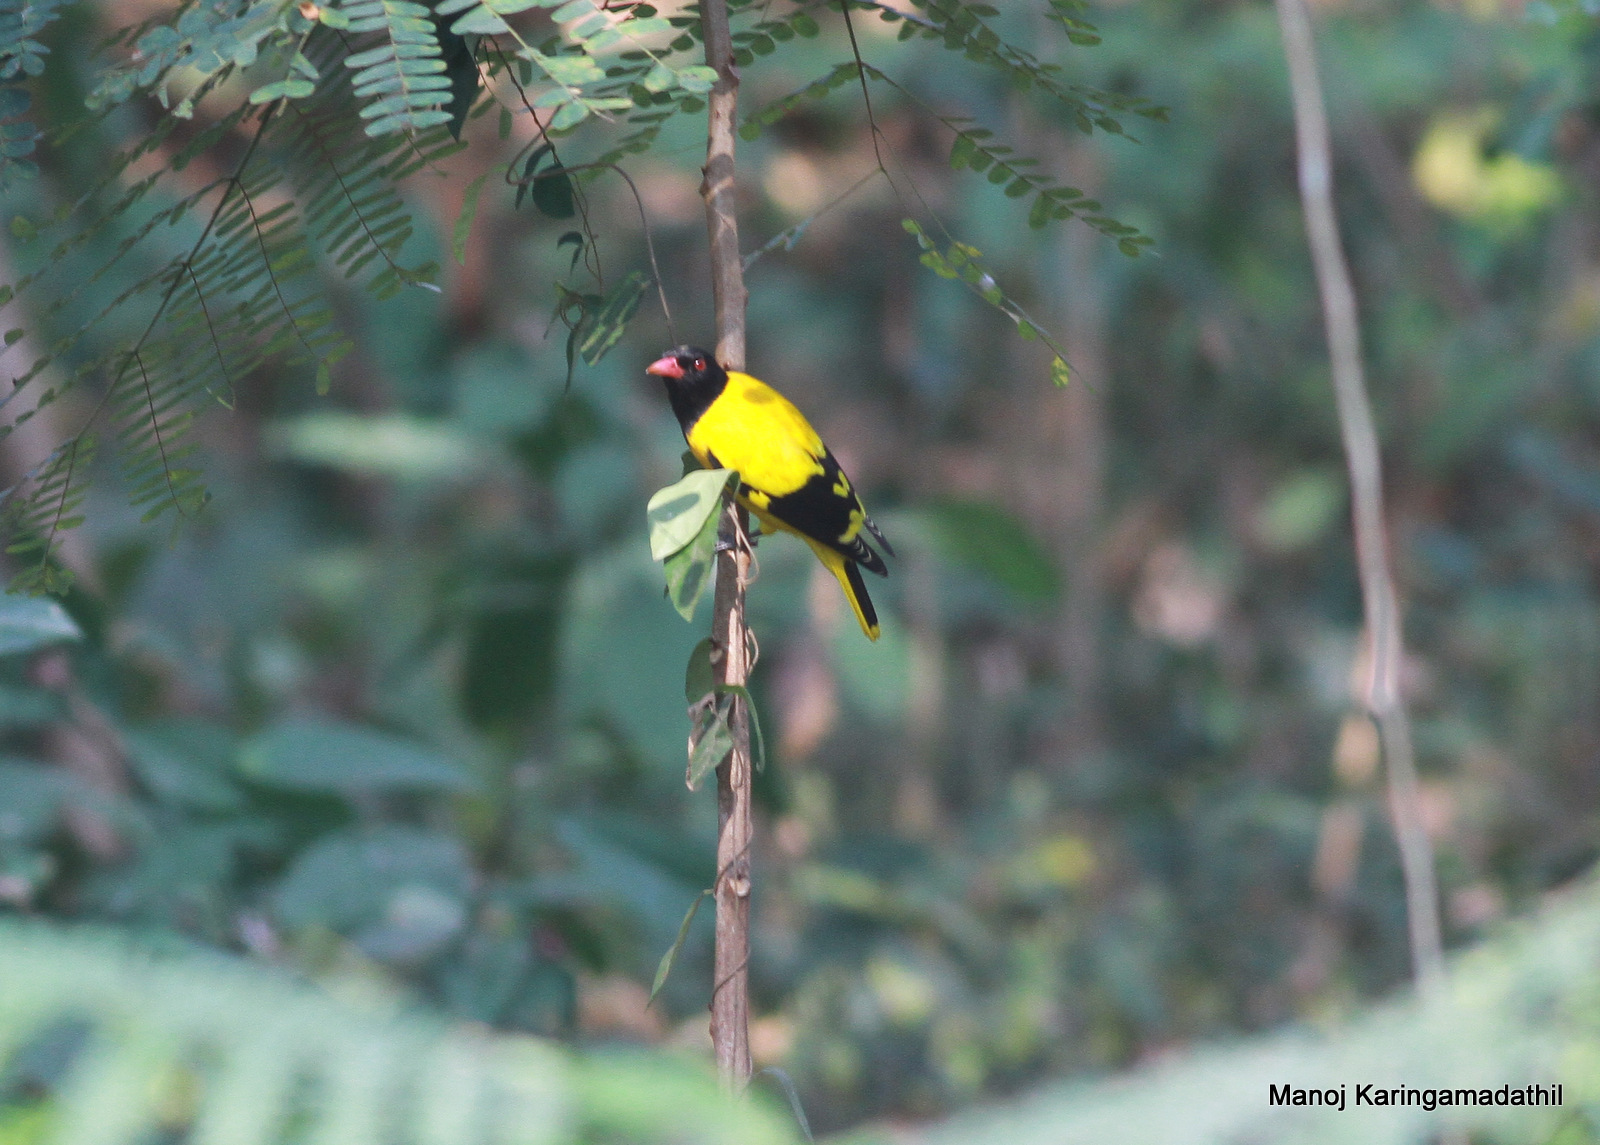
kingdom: Animalia
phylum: Chordata
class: Aves
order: Passeriformes
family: Oriolidae
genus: Oriolus
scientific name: Oriolus xanthornus
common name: Black-hooded oriole
